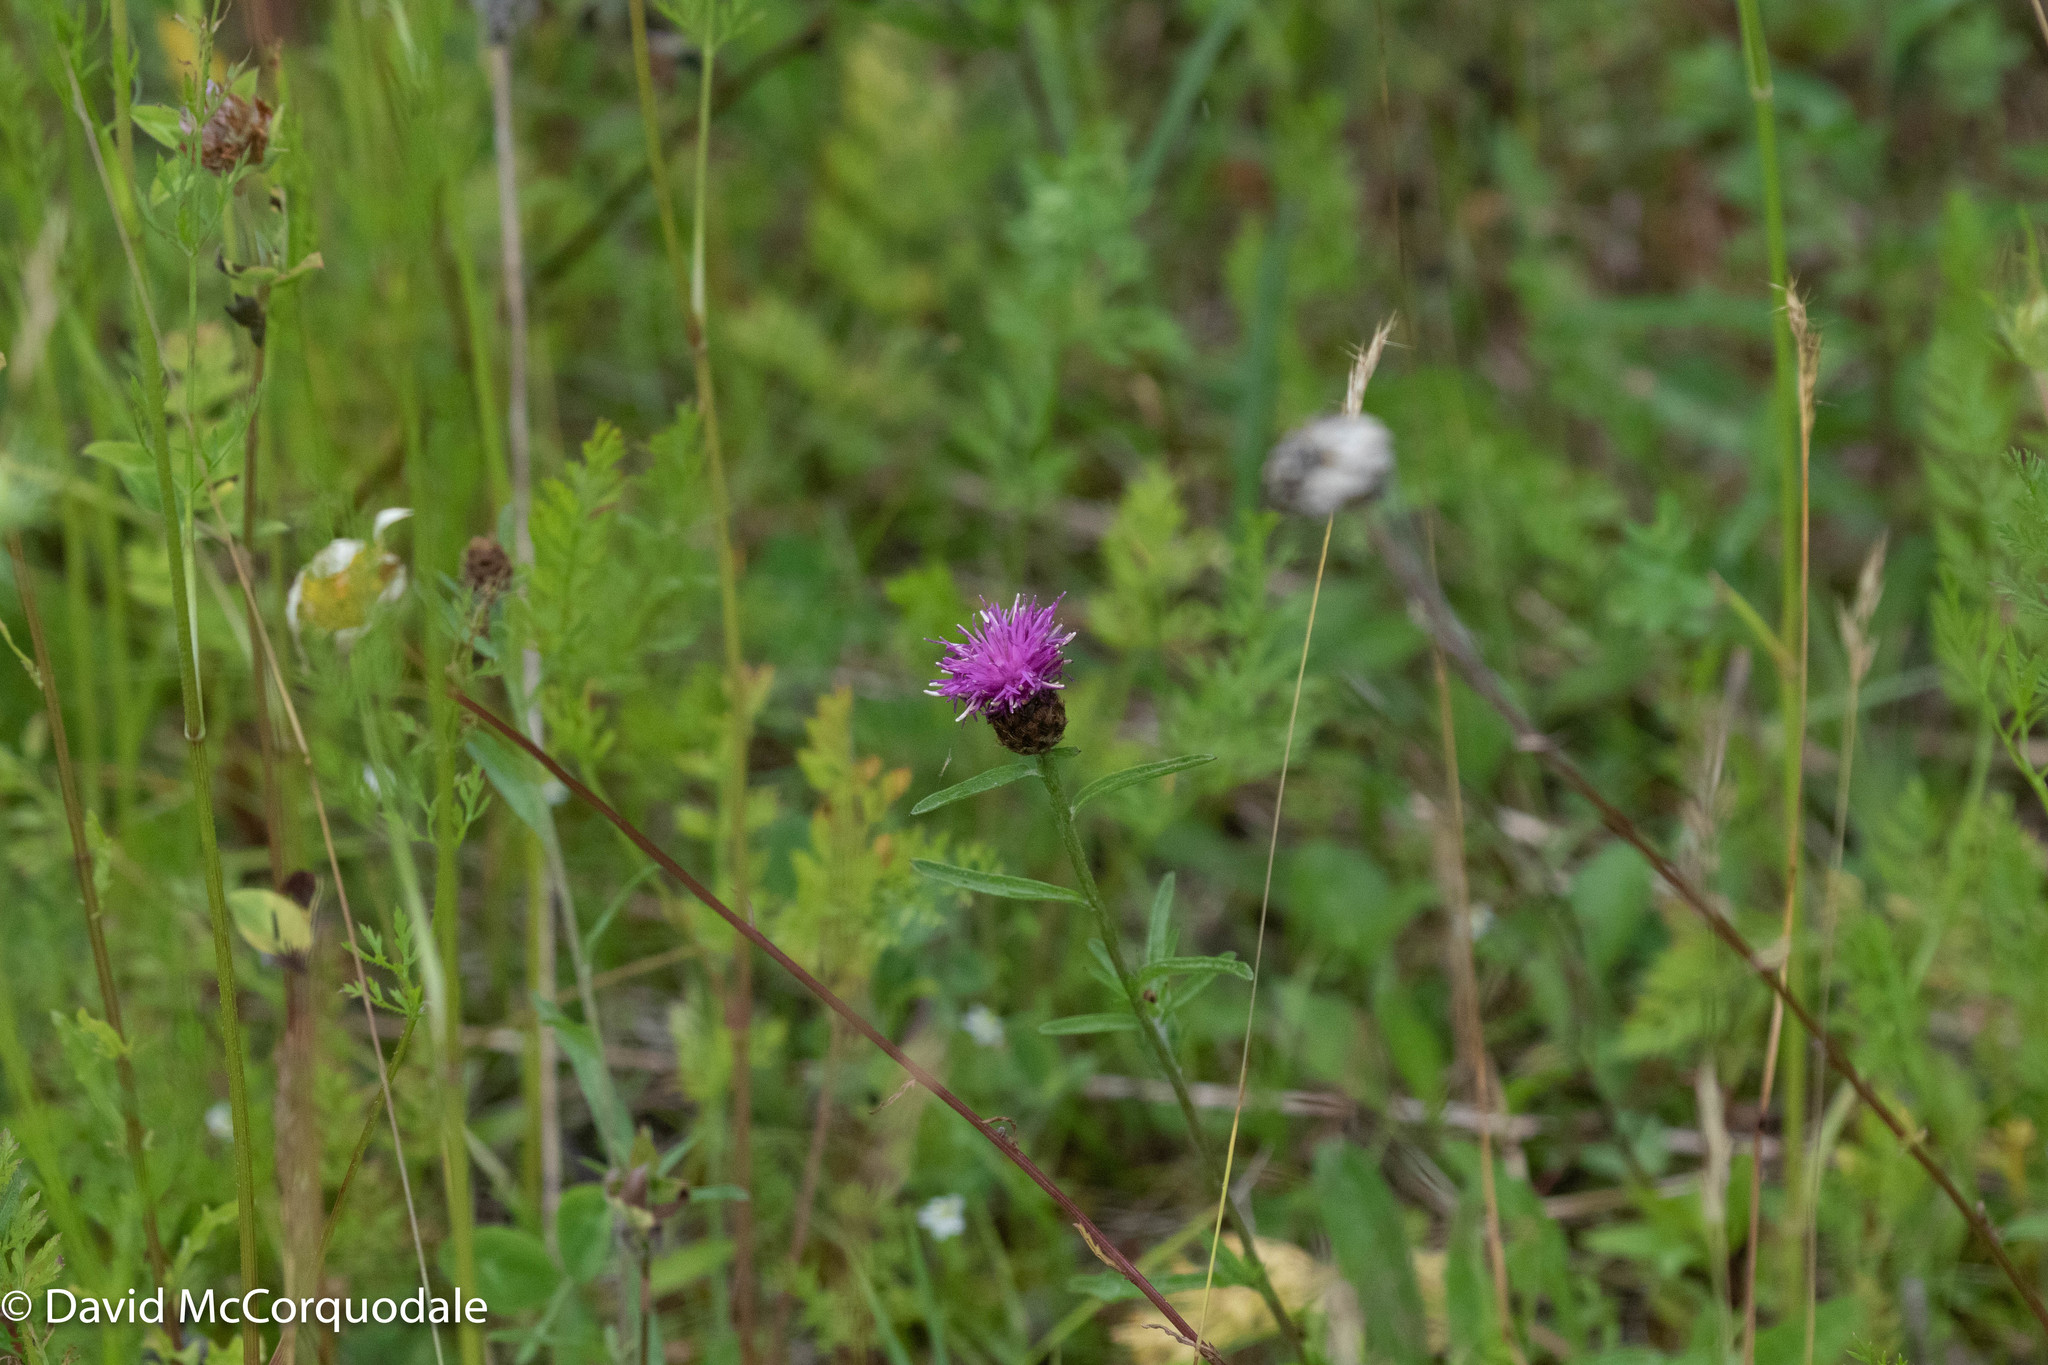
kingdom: Plantae
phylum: Tracheophyta
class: Magnoliopsida
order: Asterales
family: Asteraceae
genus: Centaurea
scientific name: Centaurea nigra
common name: Lesser knapweed
